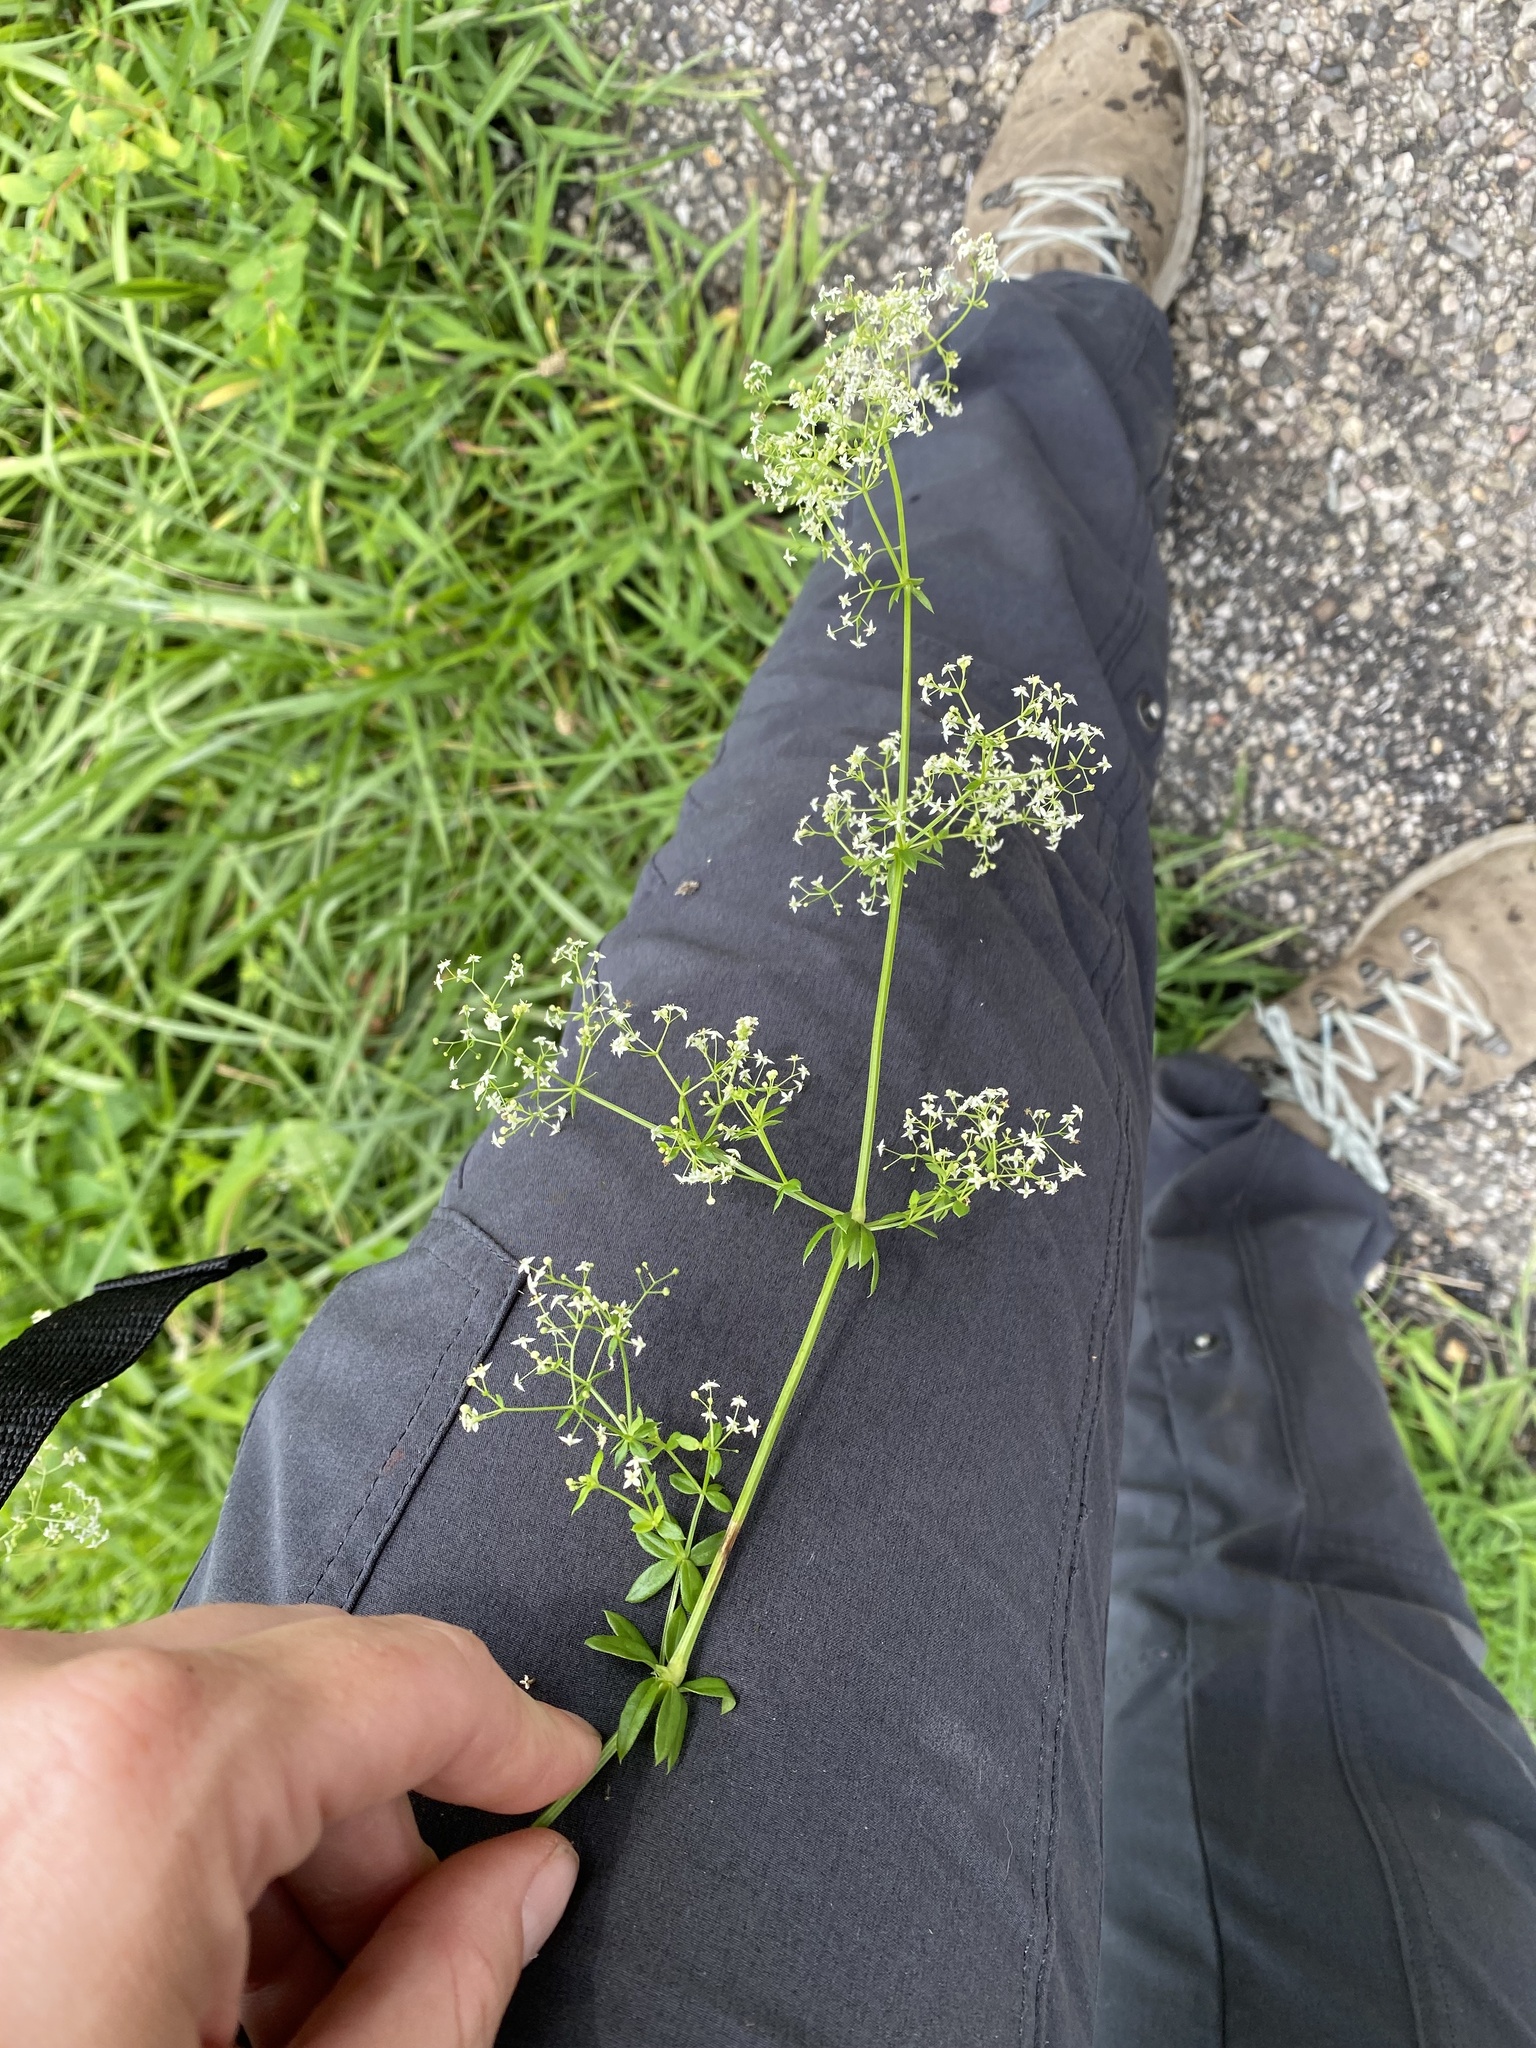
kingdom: Plantae
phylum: Tracheophyta
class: Magnoliopsida
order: Gentianales
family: Rubiaceae
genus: Galium
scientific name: Galium mollugo
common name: Hedge bedstraw
